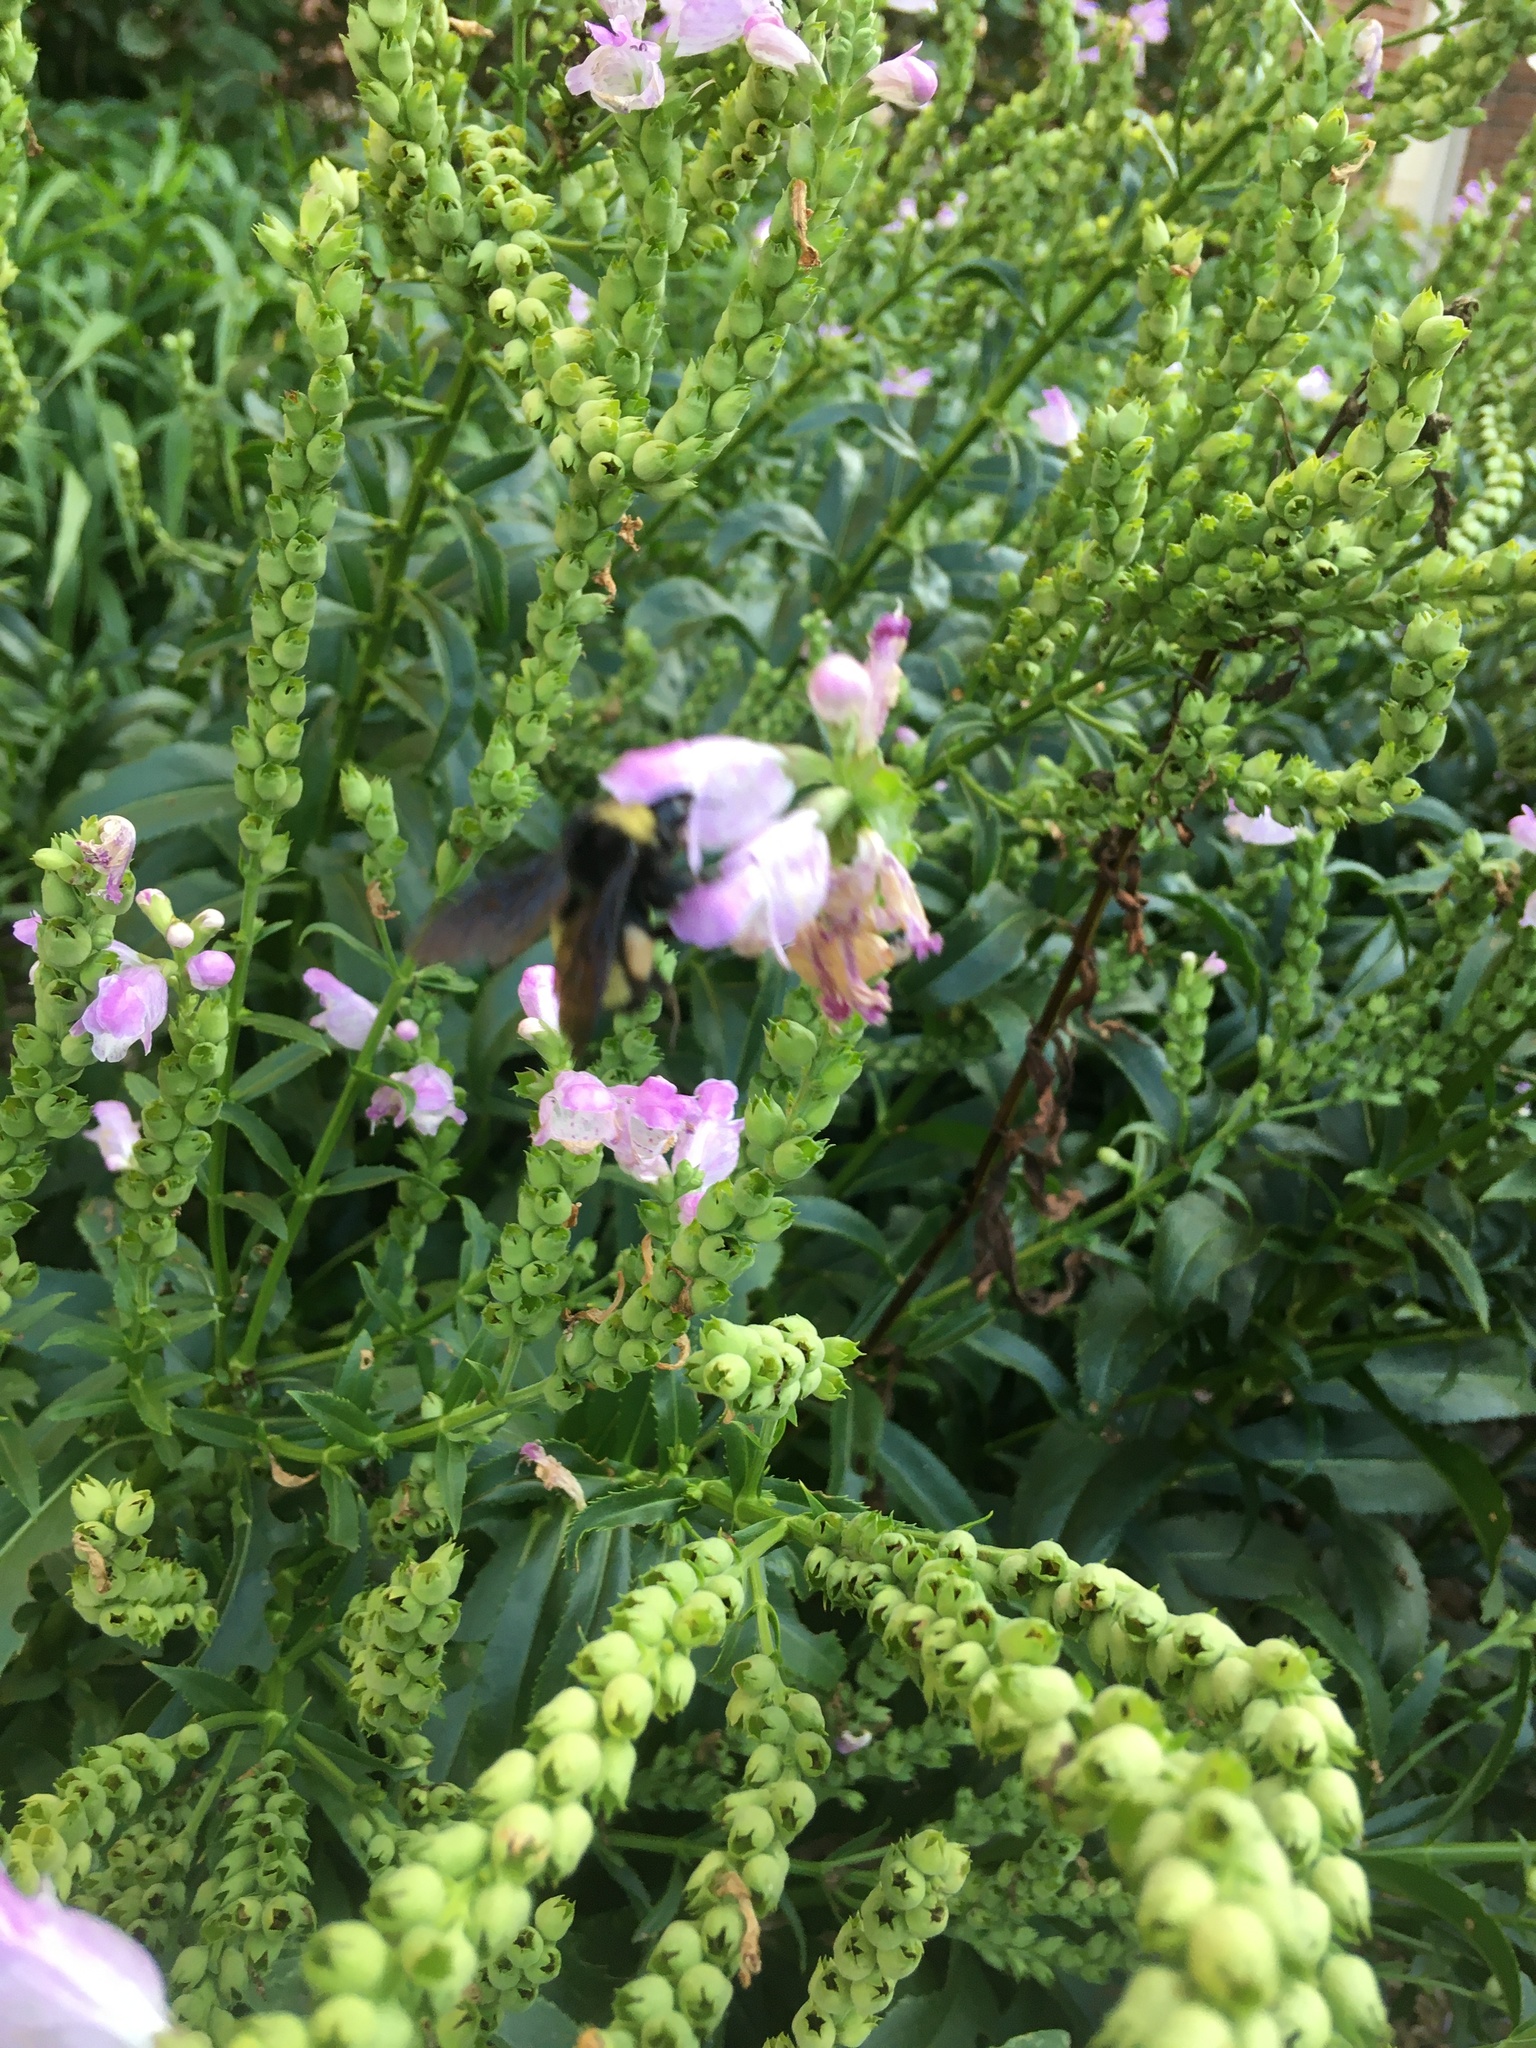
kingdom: Animalia
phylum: Arthropoda
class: Insecta
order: Hymenoptera
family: Apidae
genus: Bombus
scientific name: Bombus pensylvanicus
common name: Bumble bee
